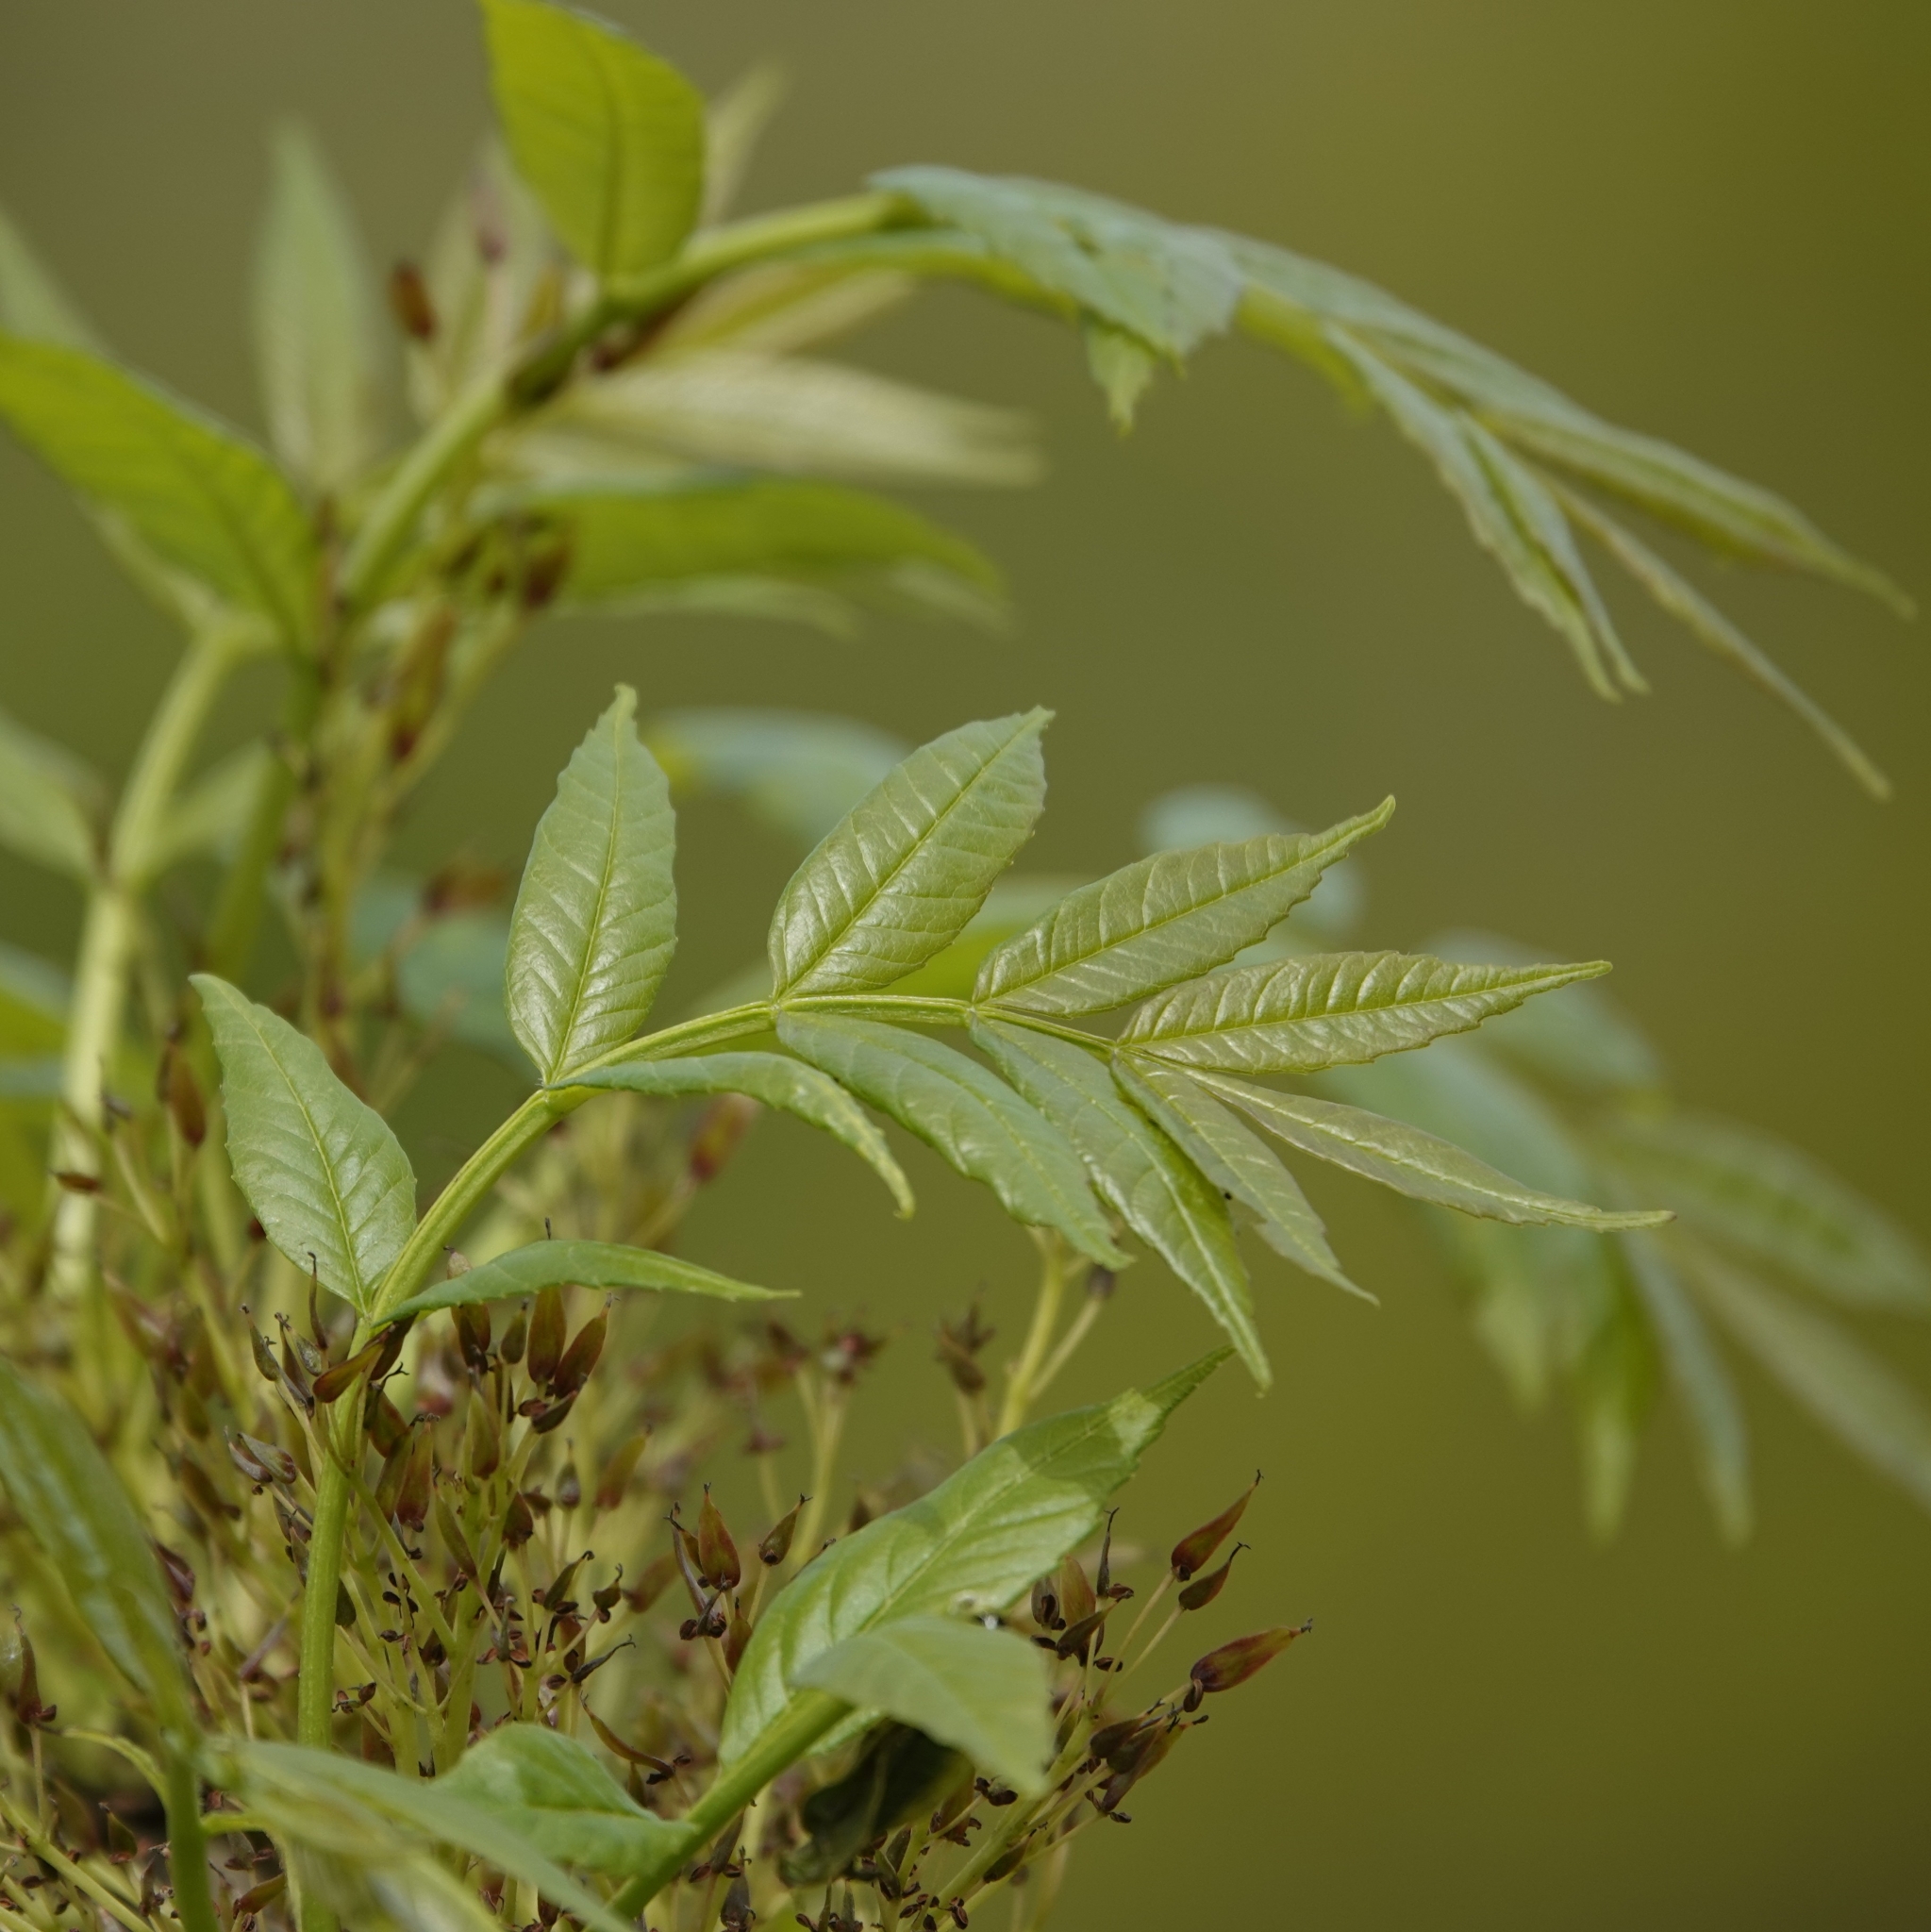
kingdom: Plantae
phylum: Tracheophyta
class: Magnoliopsida
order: Lamiales
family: Oleaceae
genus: Fraxinus
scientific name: Fraxinus excelsior
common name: European ash
